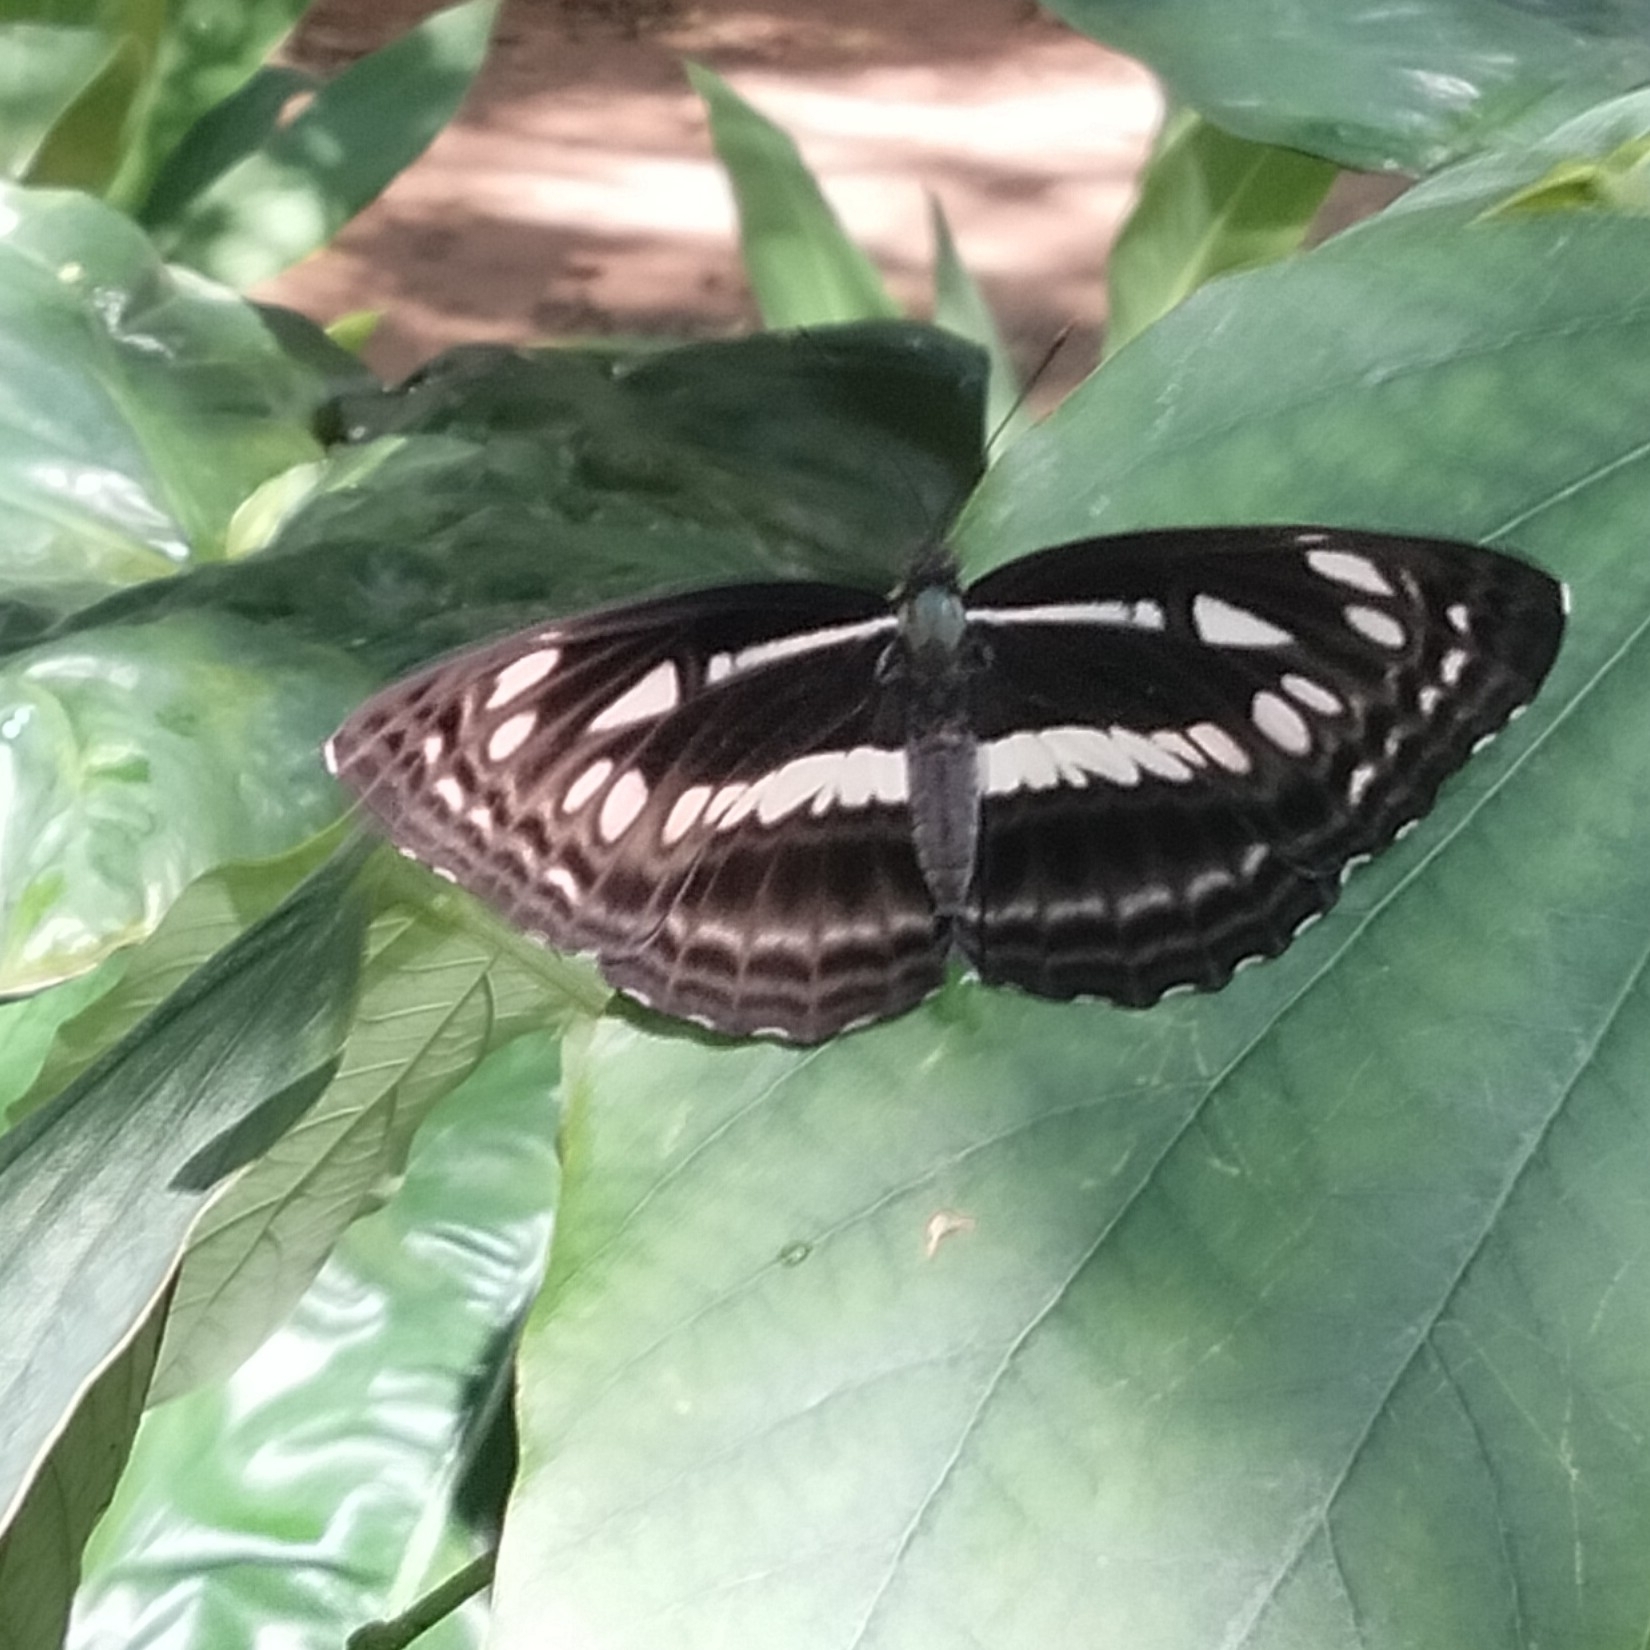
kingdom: Animalia
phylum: Arthropoda
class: Insecta
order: Lepidoptera
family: Nymphalidae
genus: Neptis
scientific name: Neptis jumbah
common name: Chestnut-streaked sailer
